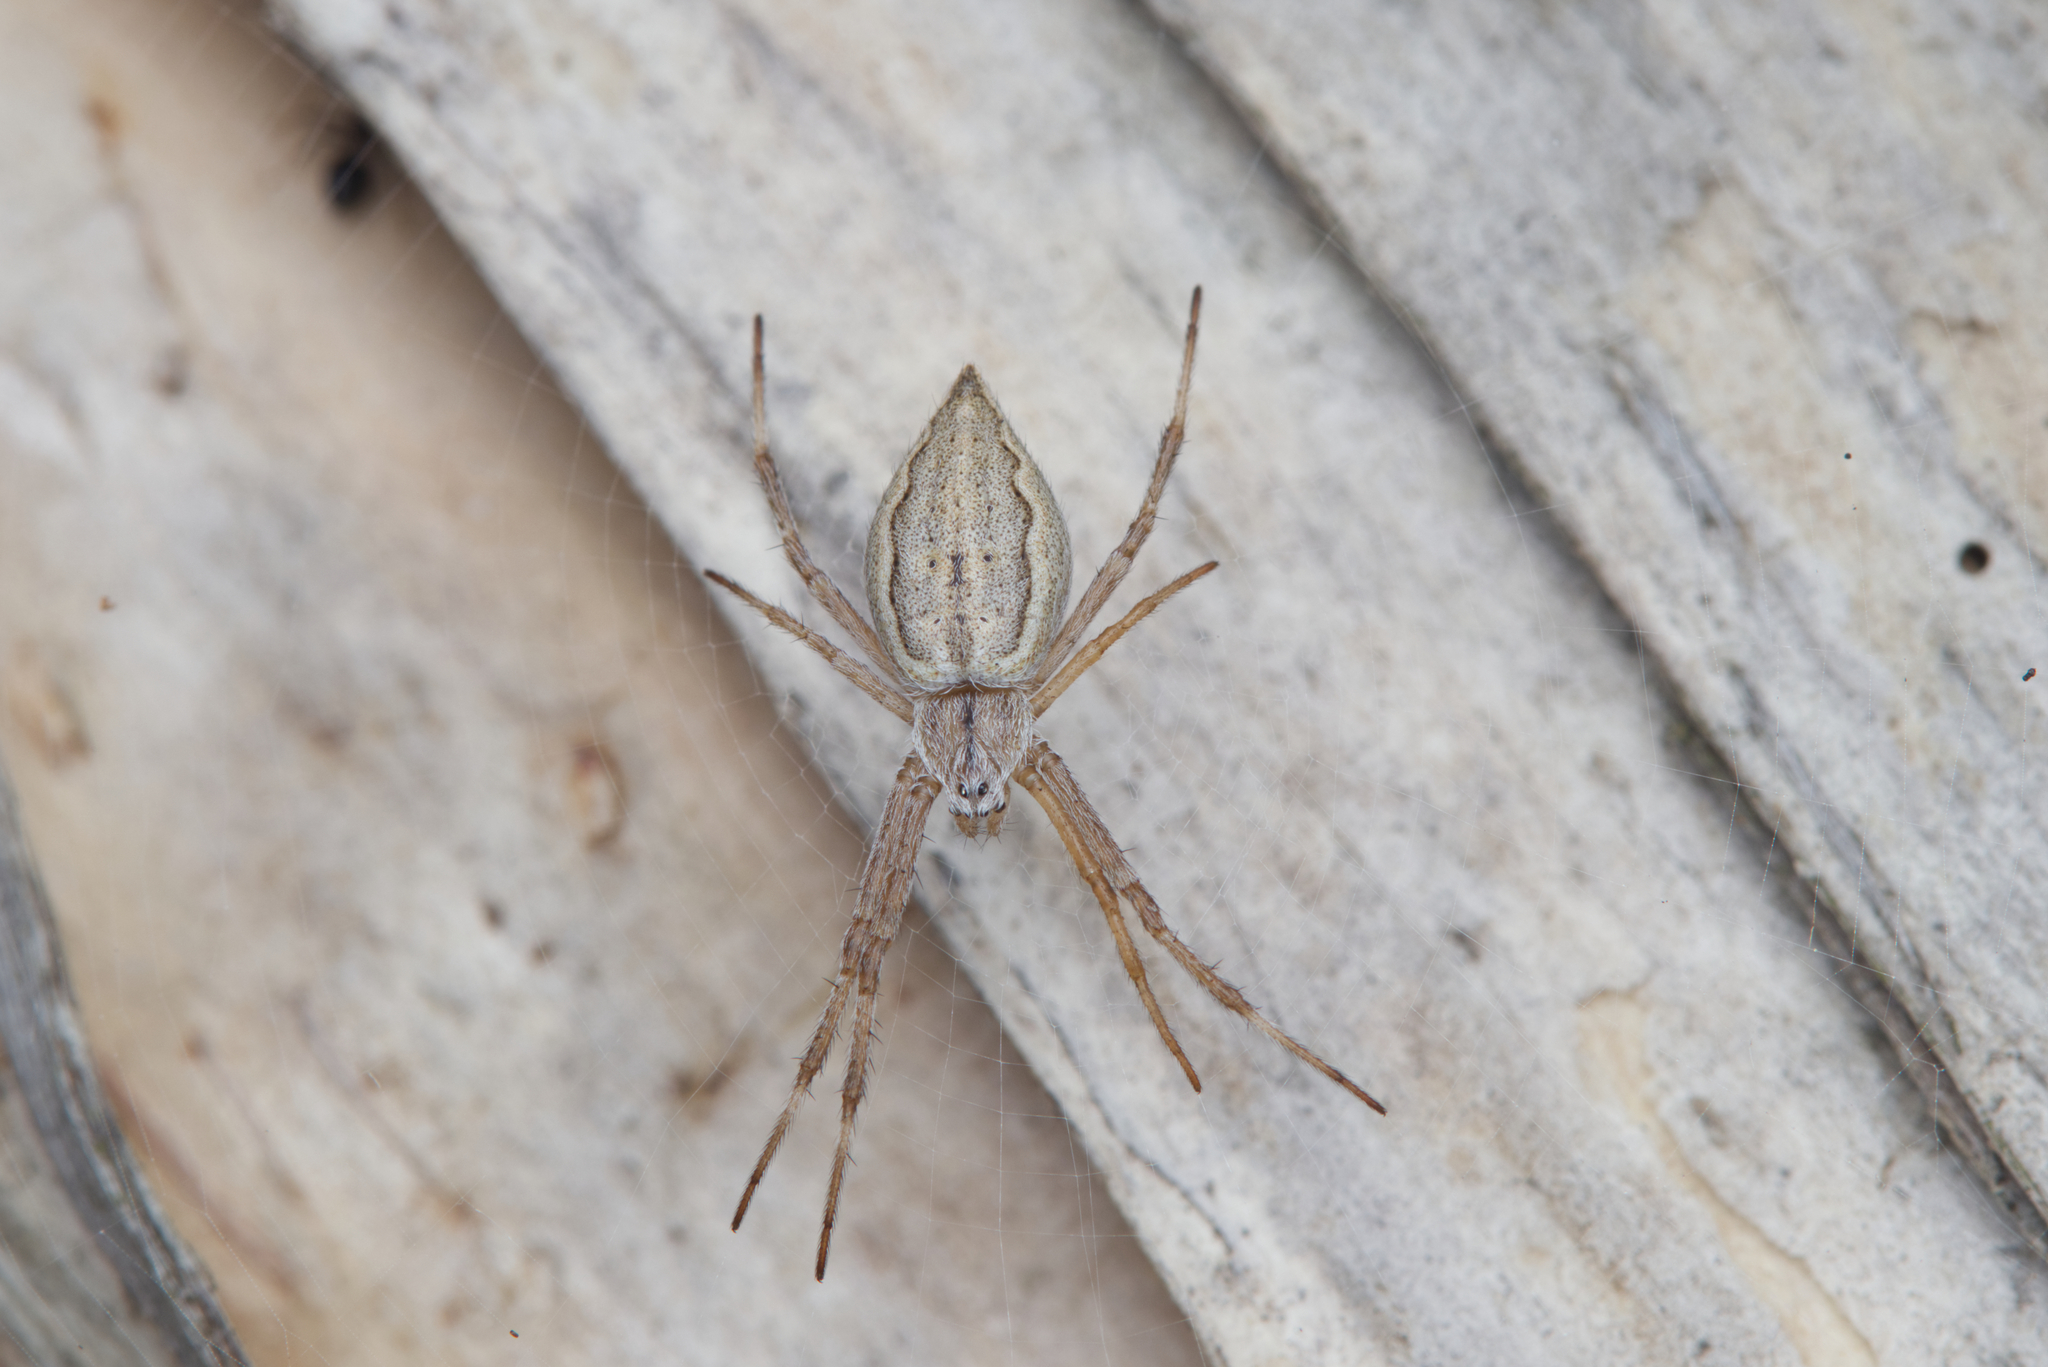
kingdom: Animalia
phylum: Arthropoda
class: Arachnida
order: Araneae
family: Araneidae
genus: Argiope
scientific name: Argiope ocyaloides
